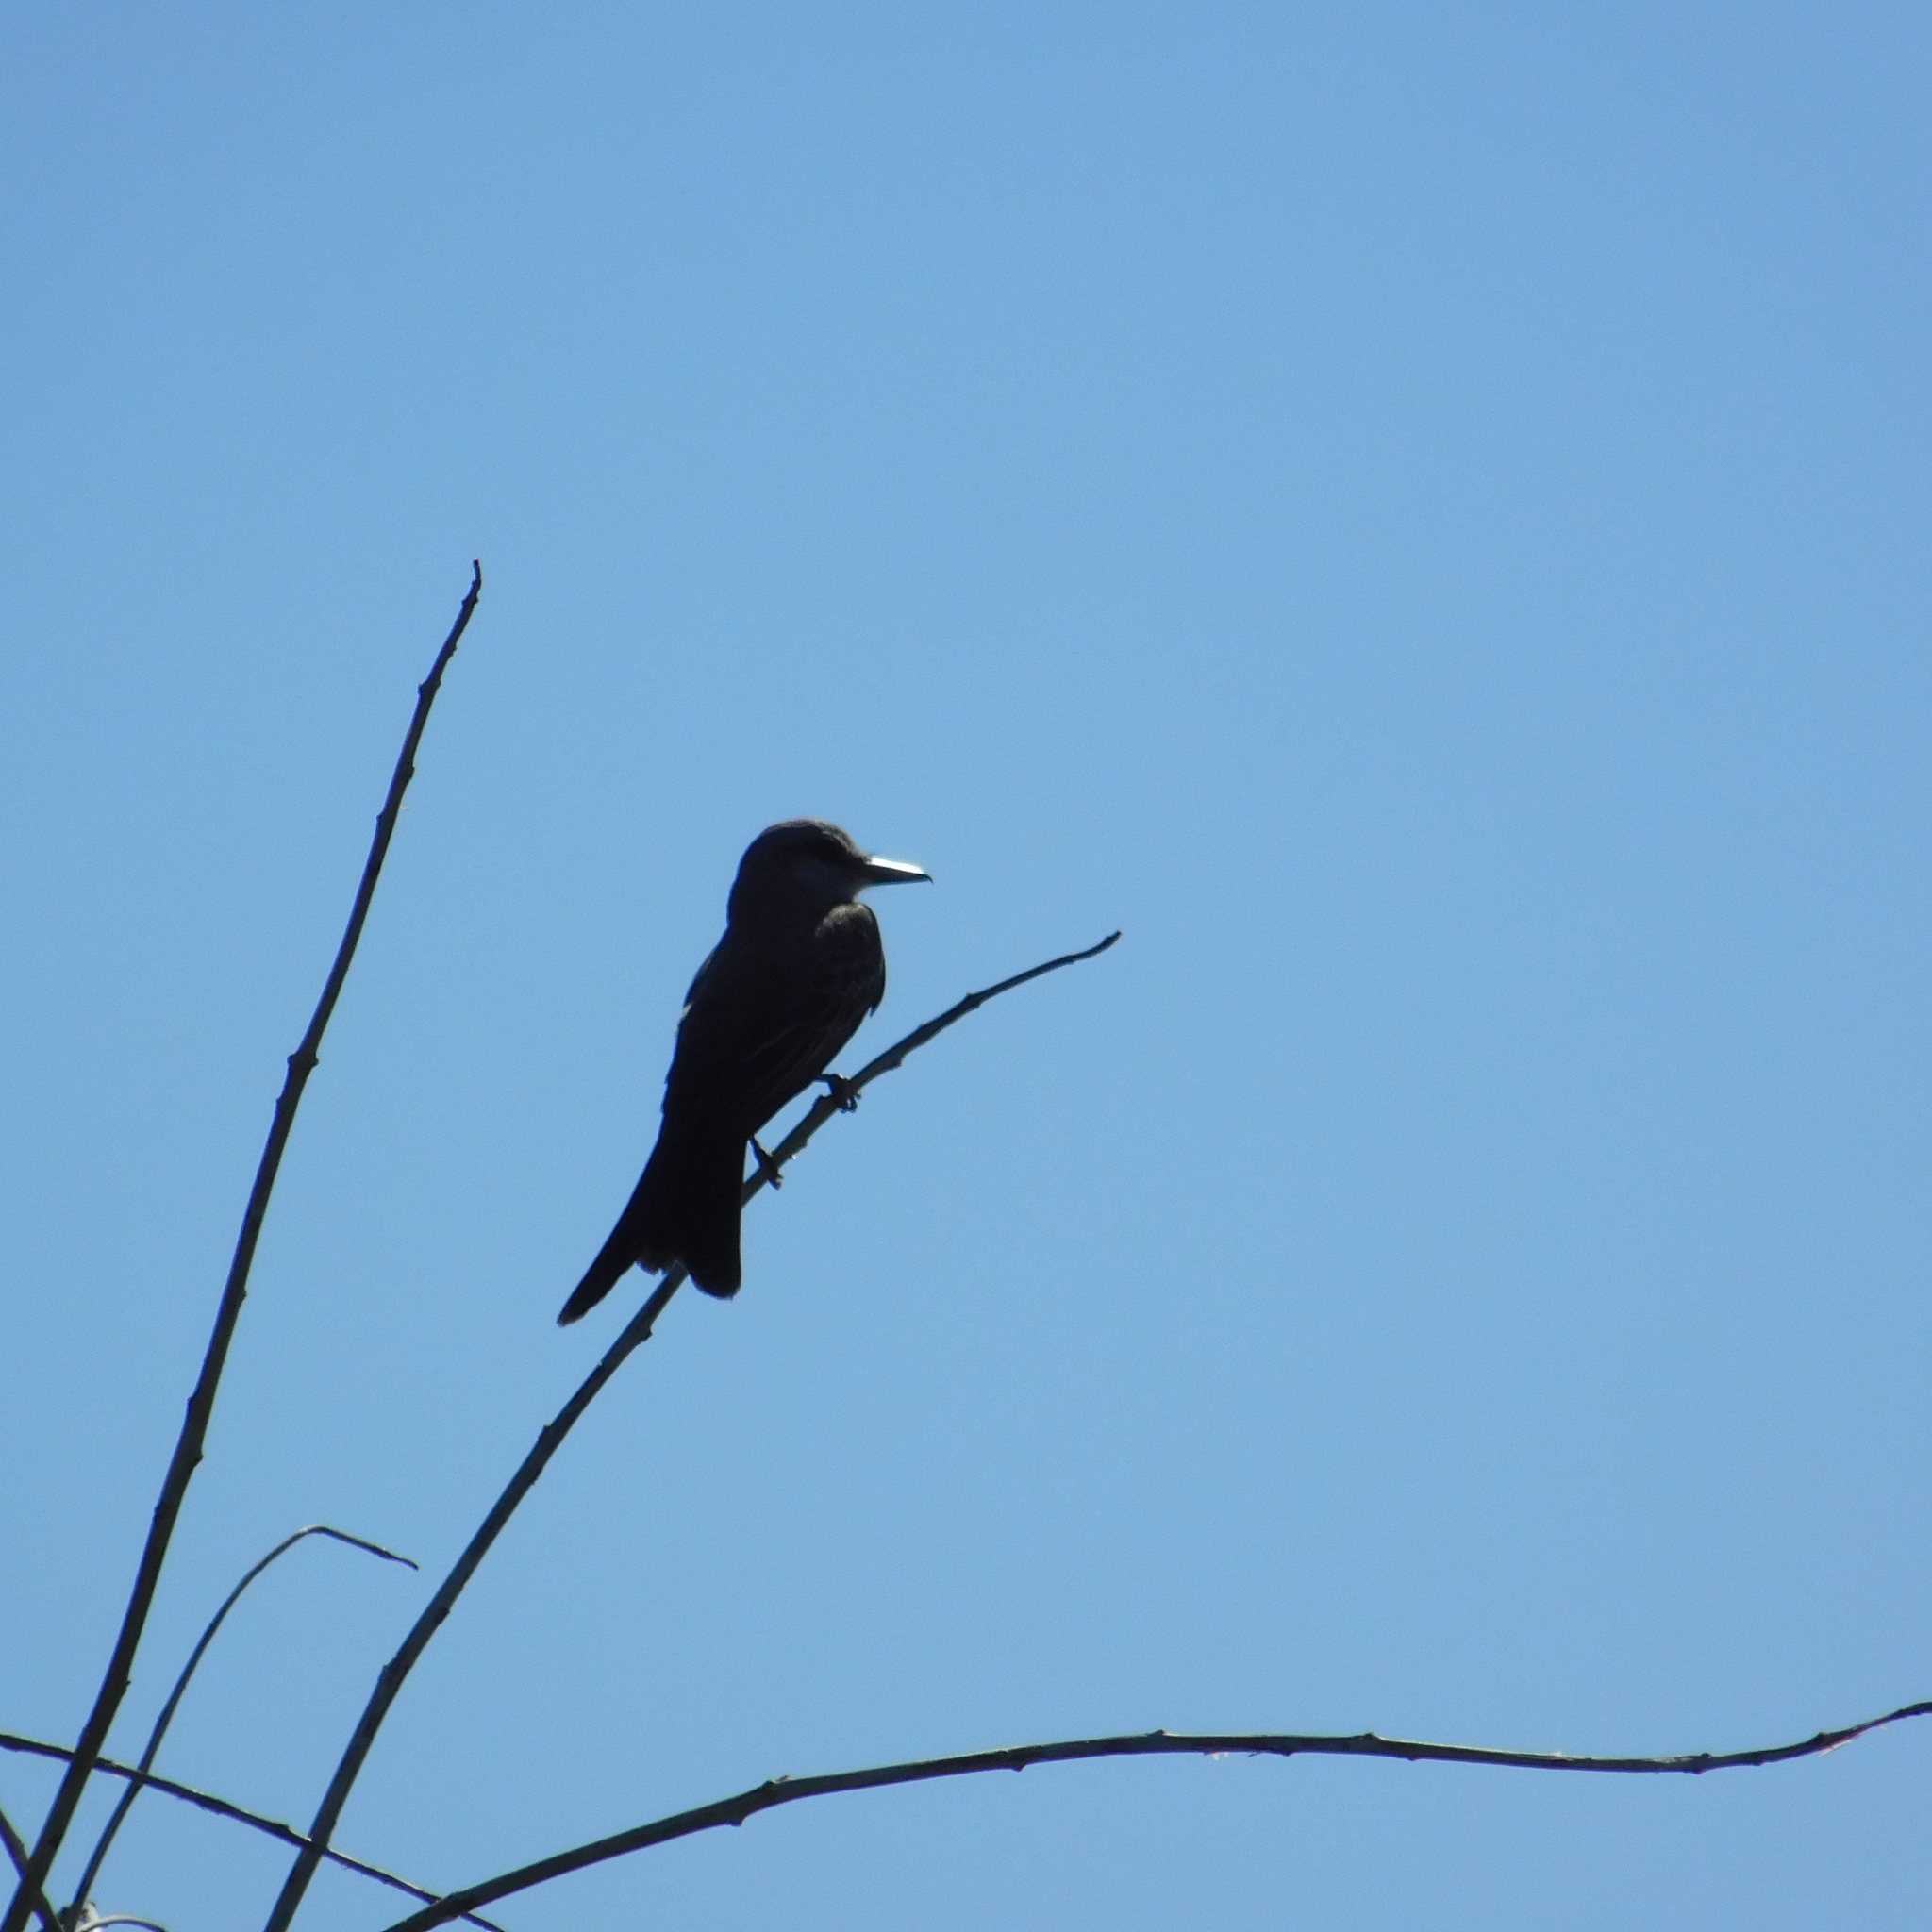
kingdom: Animalia
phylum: Chordata
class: Aves
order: Passeriformes
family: Tyrannidae
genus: Tyrannus
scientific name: Tyrannus melancholicus
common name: Tropical kingbird
